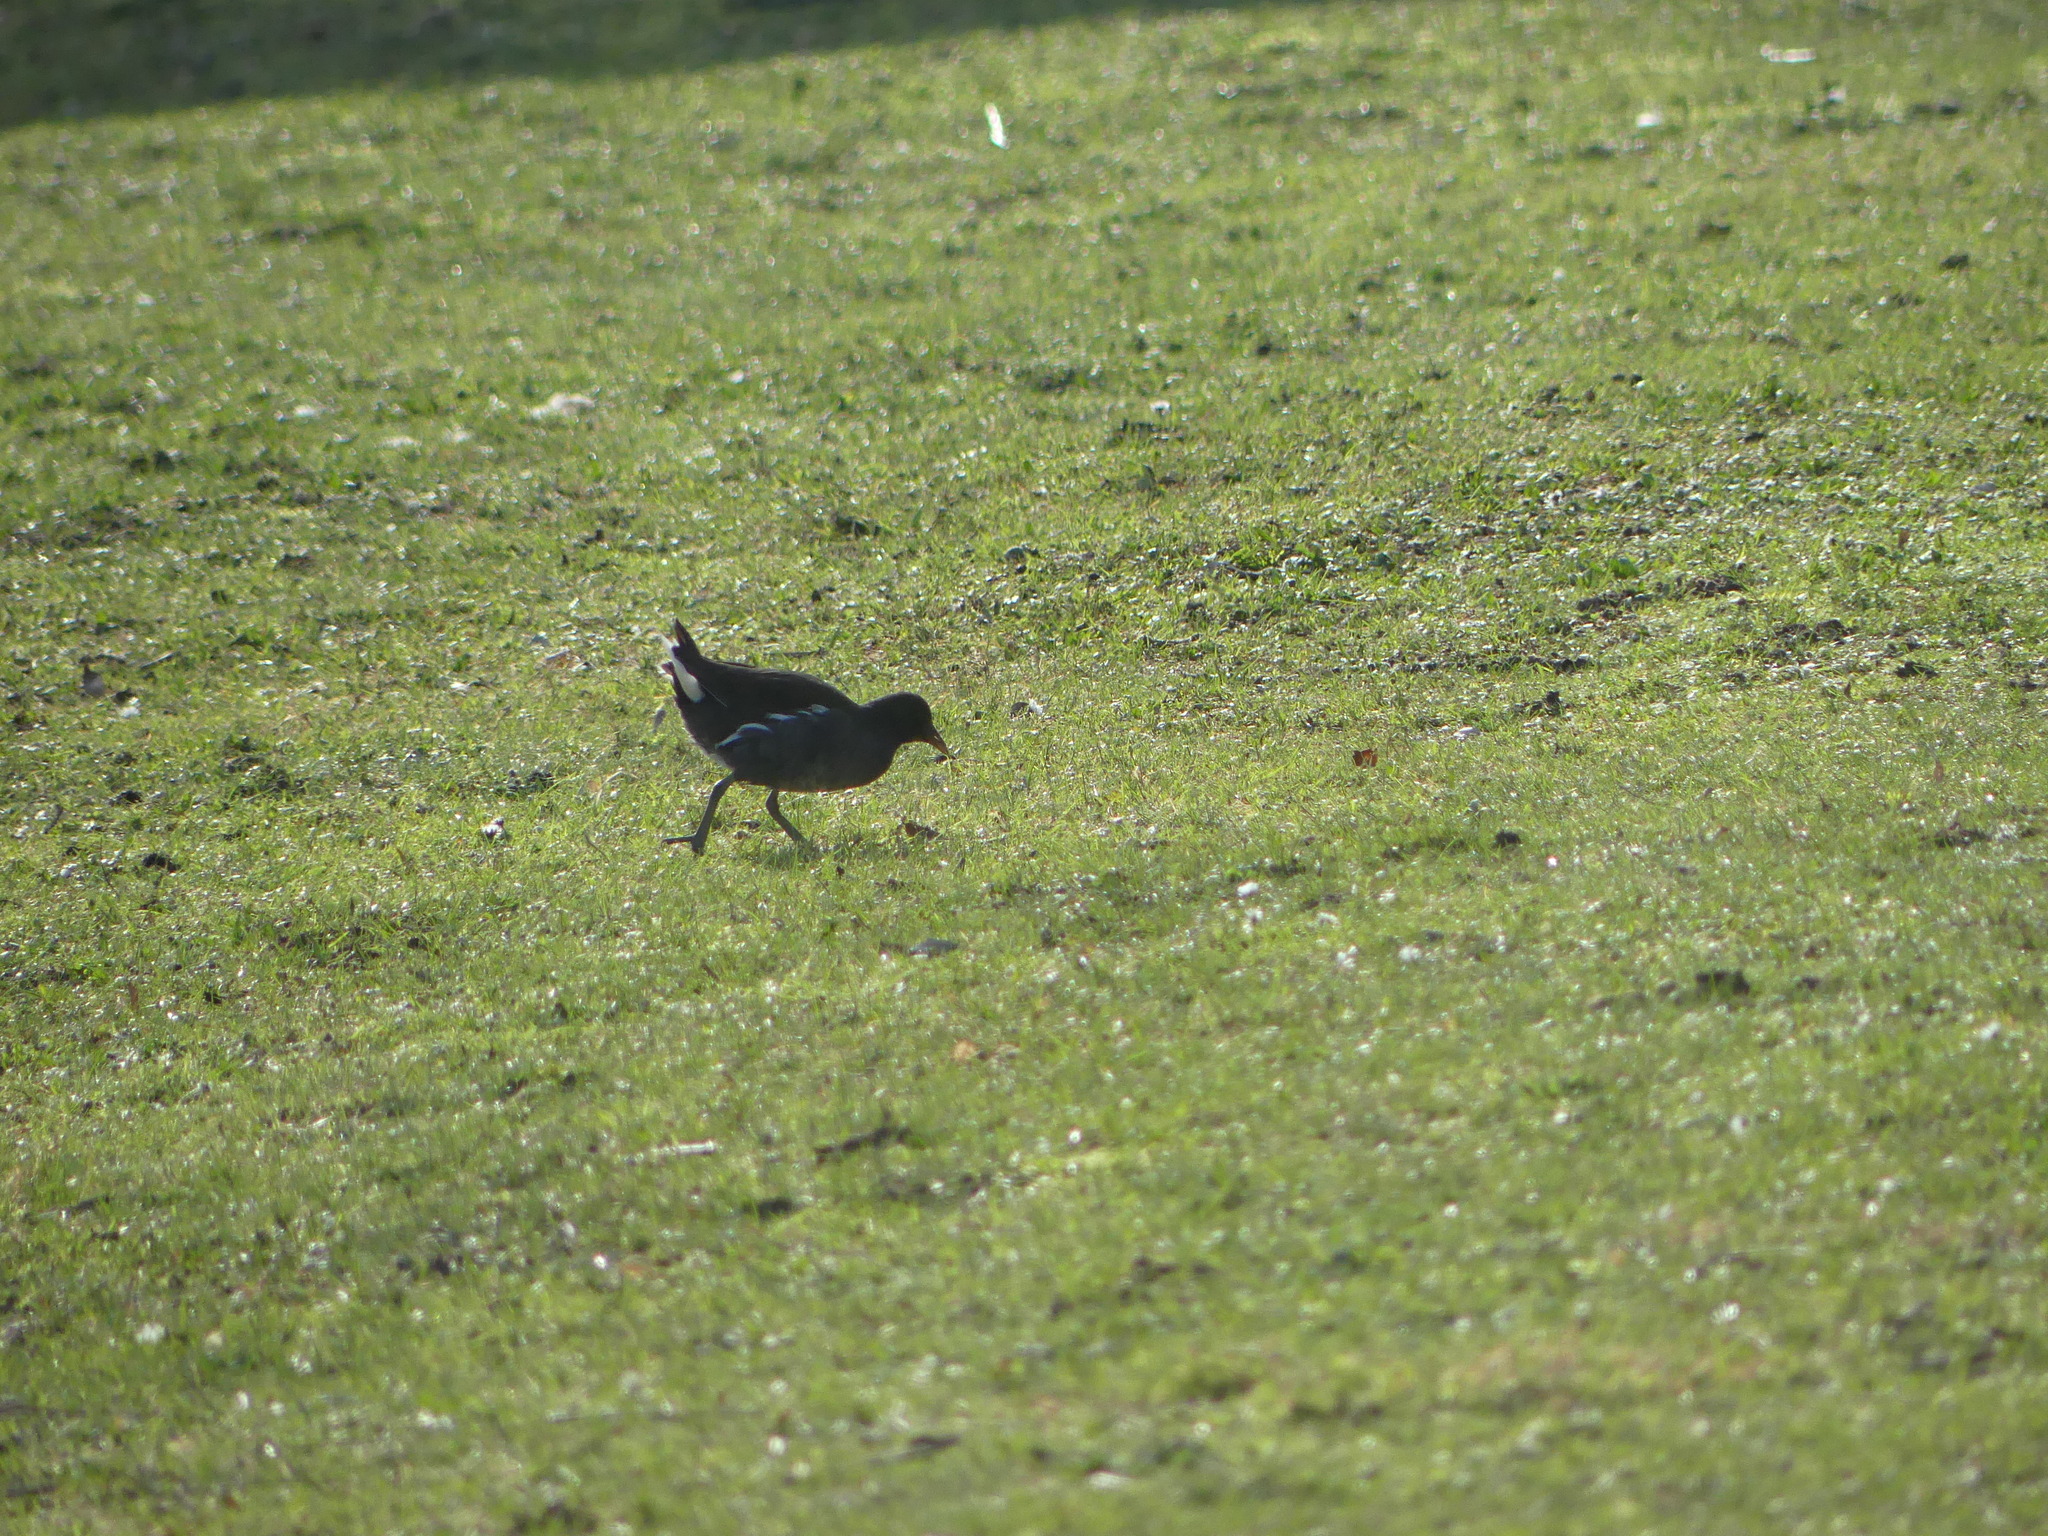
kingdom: Animalia
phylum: Chordata
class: Aves
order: Gruiformes
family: Rallidae
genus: Gallinula
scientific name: Gallinula chloropus
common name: Common moorhen
